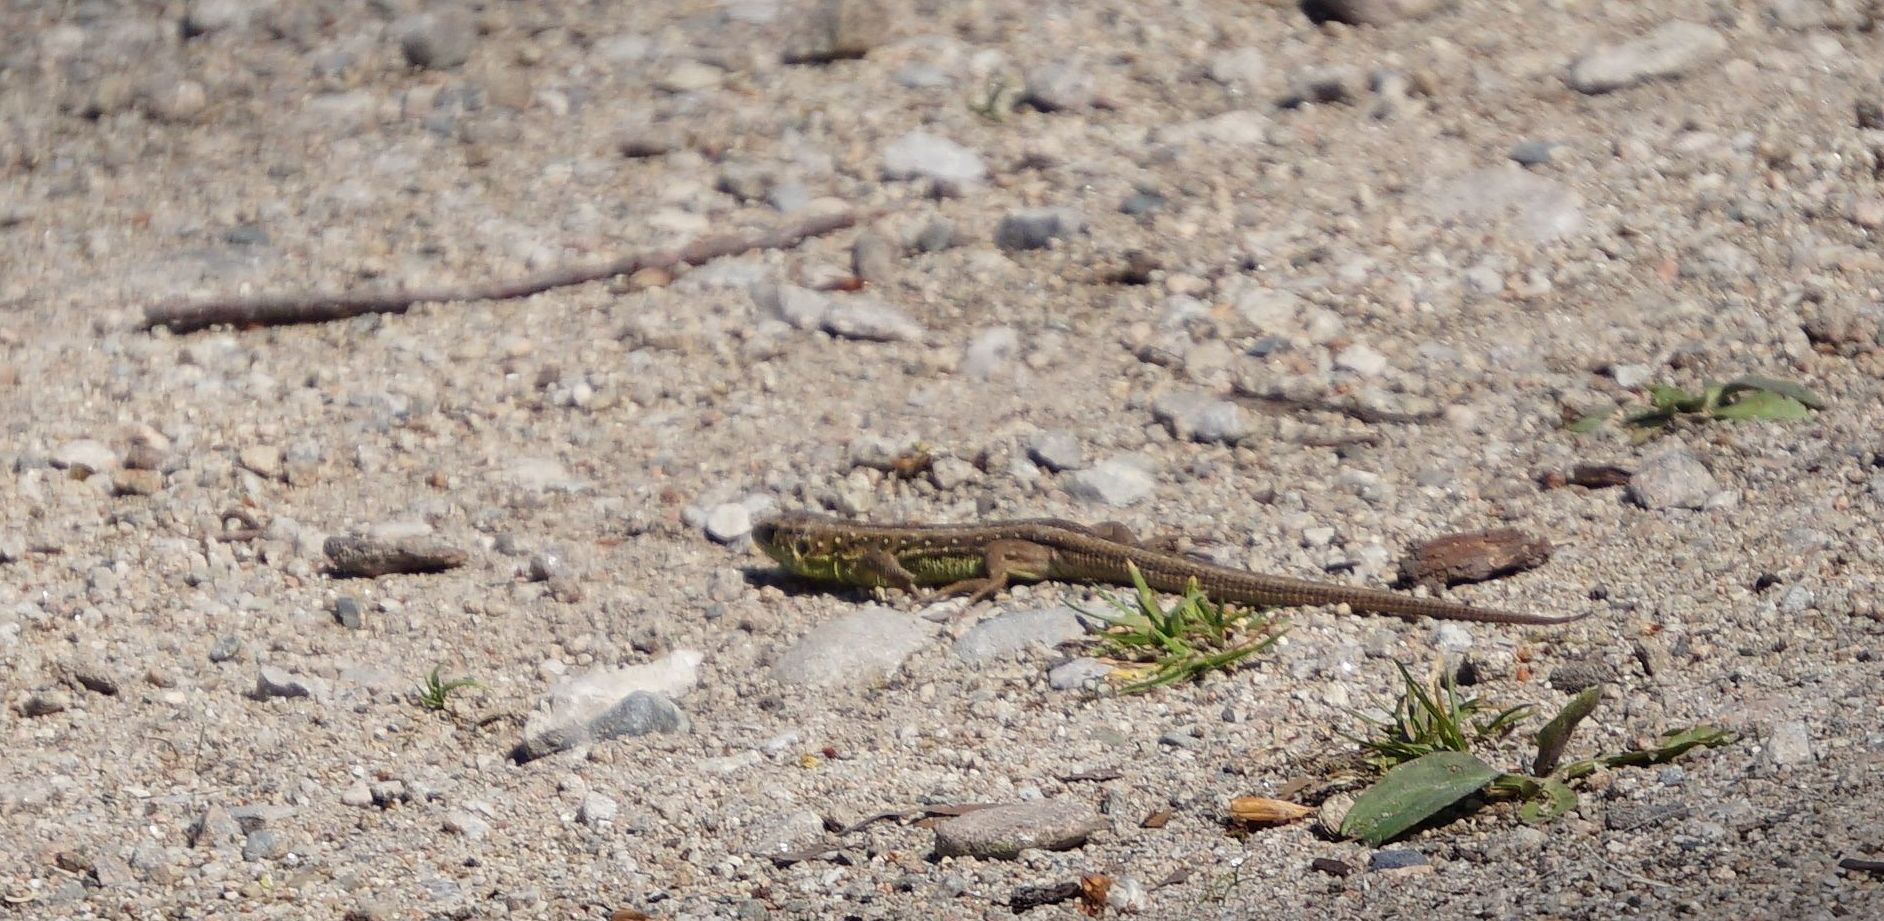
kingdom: Animalia
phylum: Chordata
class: Squamata
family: Lacertidae
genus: Lacerta
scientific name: Lacerta agilis
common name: Sand lizard
